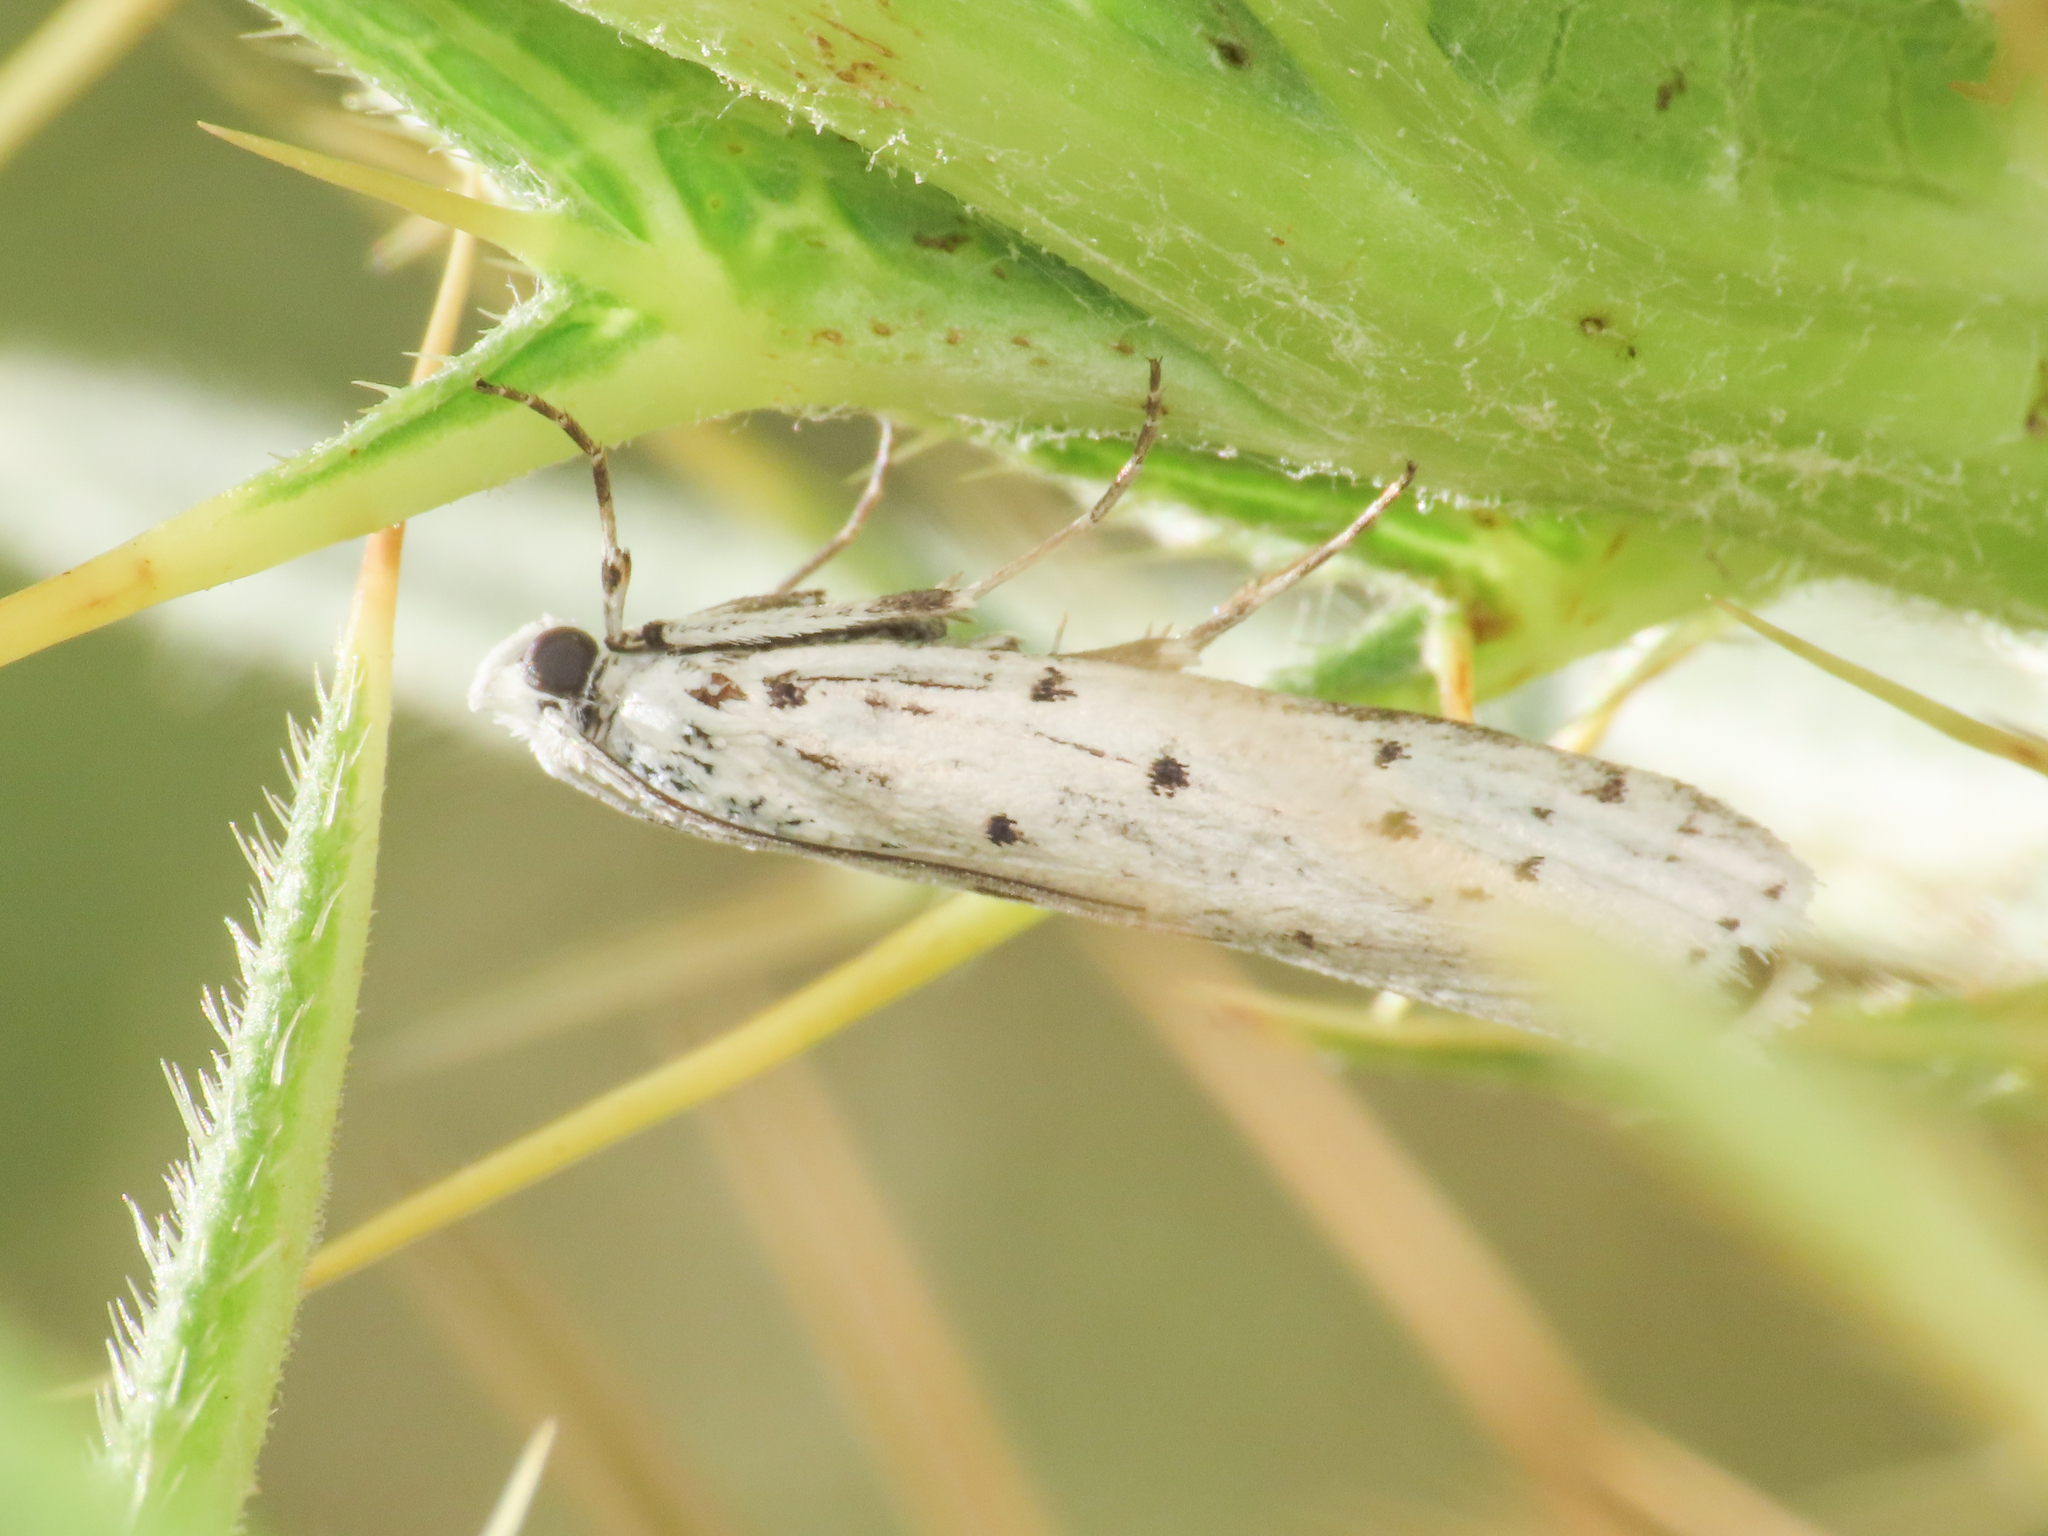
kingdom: Animalia
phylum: Arthropoda
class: Insecta
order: Lepidoptera
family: Pyralidae
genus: Myelois
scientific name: Myelois circumvoluta
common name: Thistle ermine
